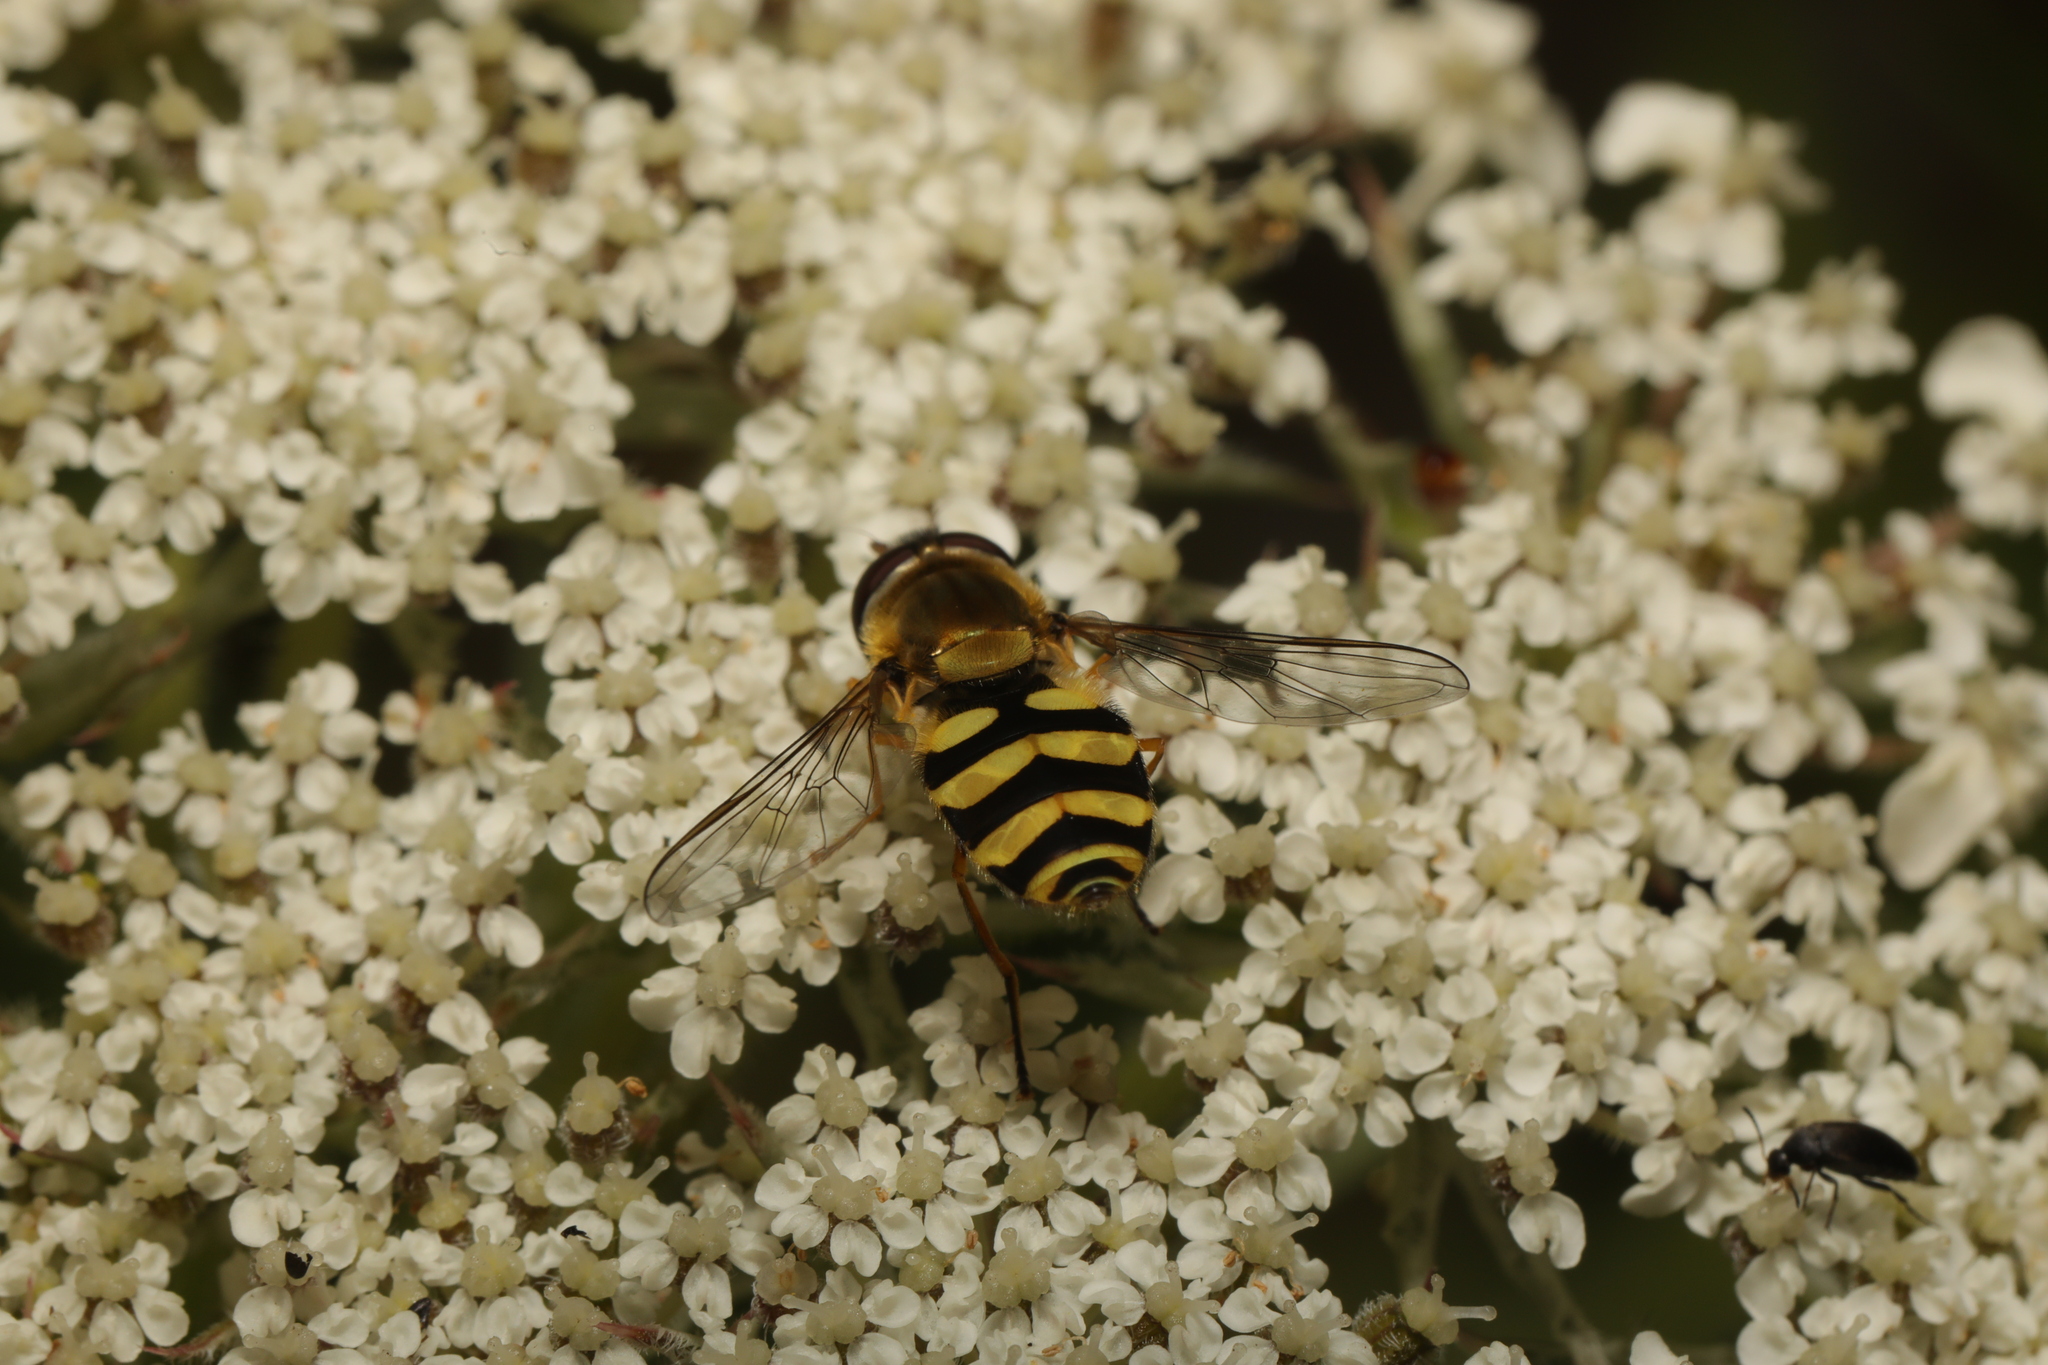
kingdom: Animalia
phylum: Arthropoda
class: Insecta
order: Diptera
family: Syrphidae
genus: Syrphus
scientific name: Syrphus
